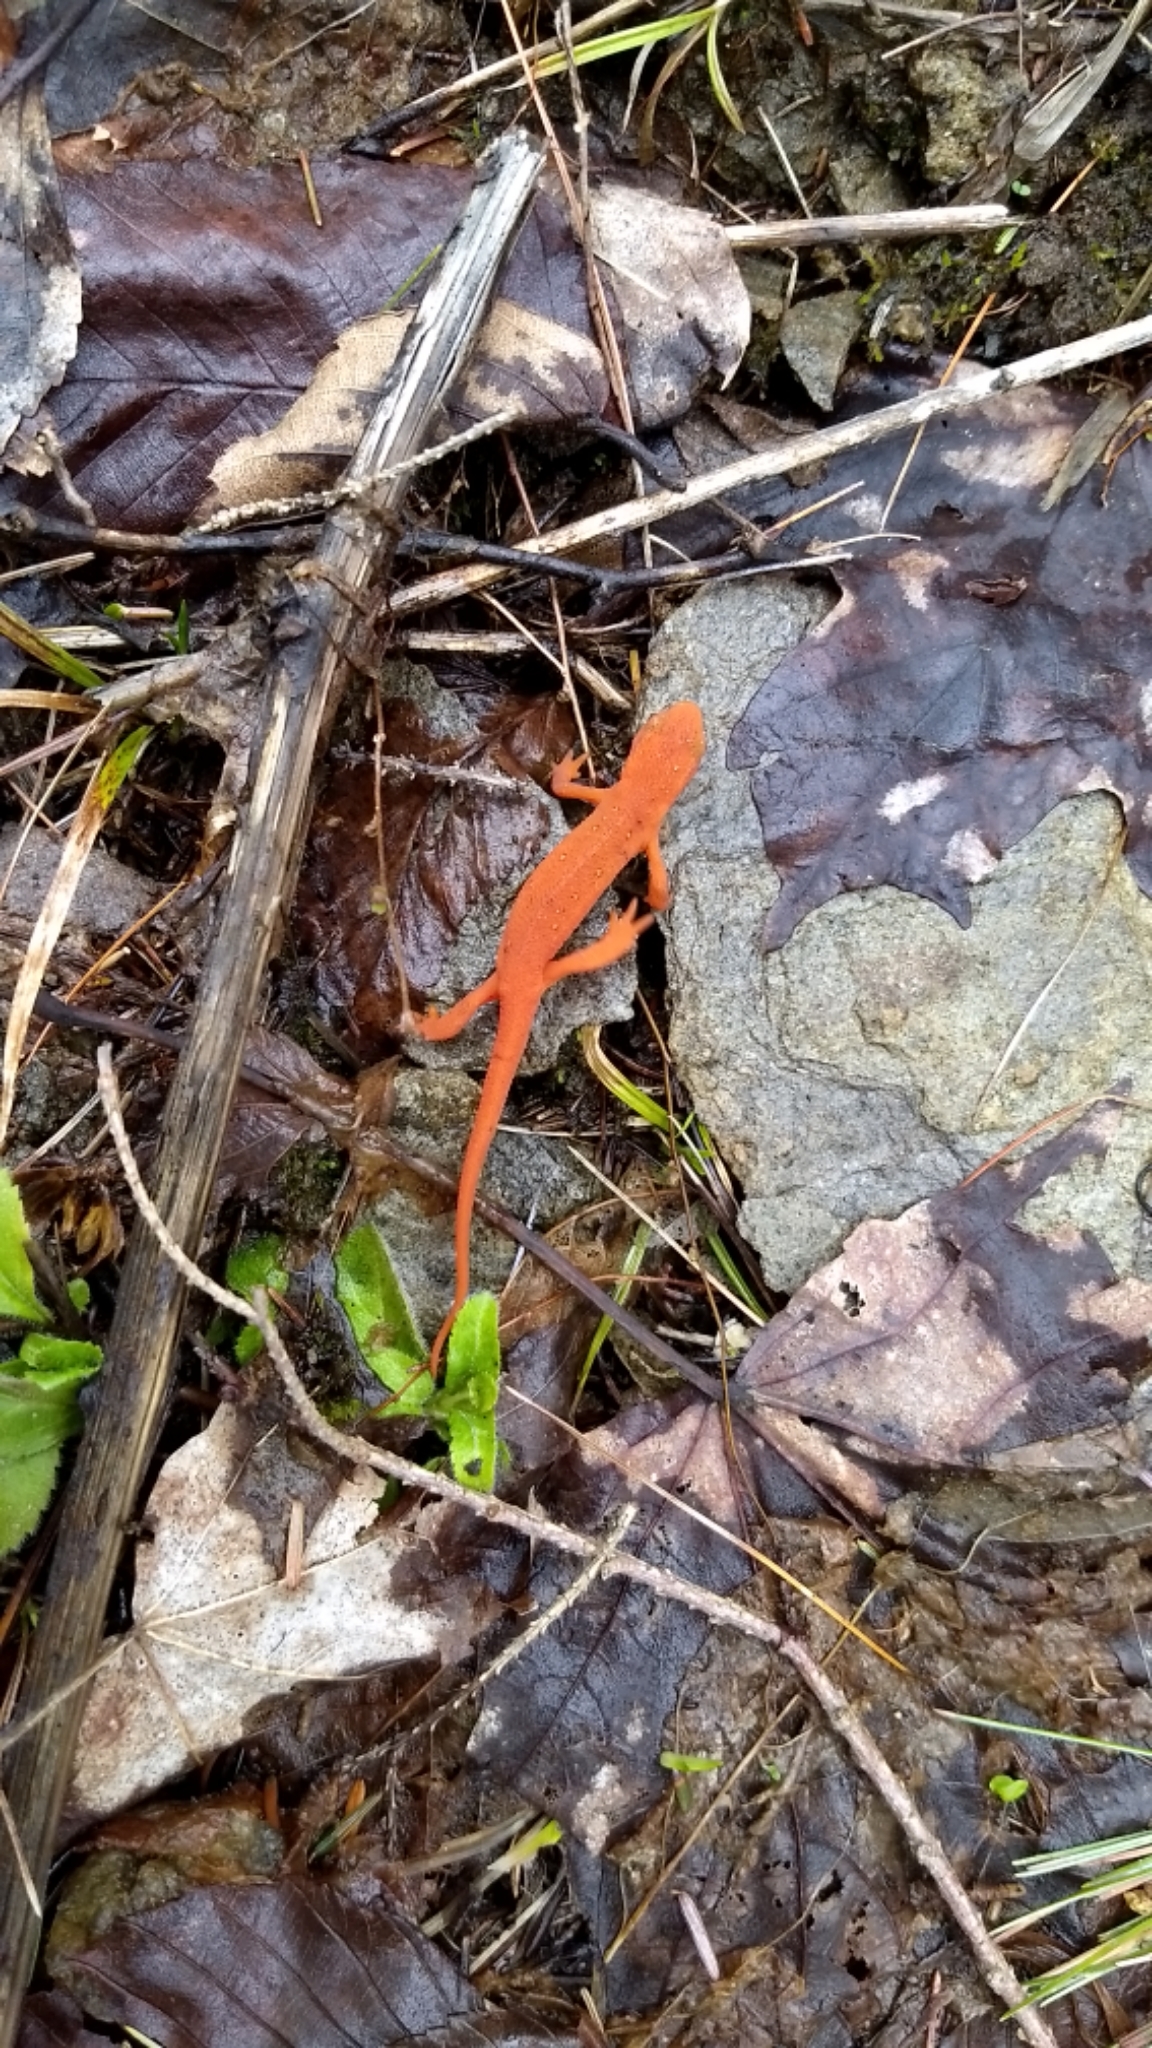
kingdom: Animalia
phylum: Chordata
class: Amphibia
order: Caudata
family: Salamandridae
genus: Notophthalmus
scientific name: Notophthalmus viridescens
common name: Eastern newt
